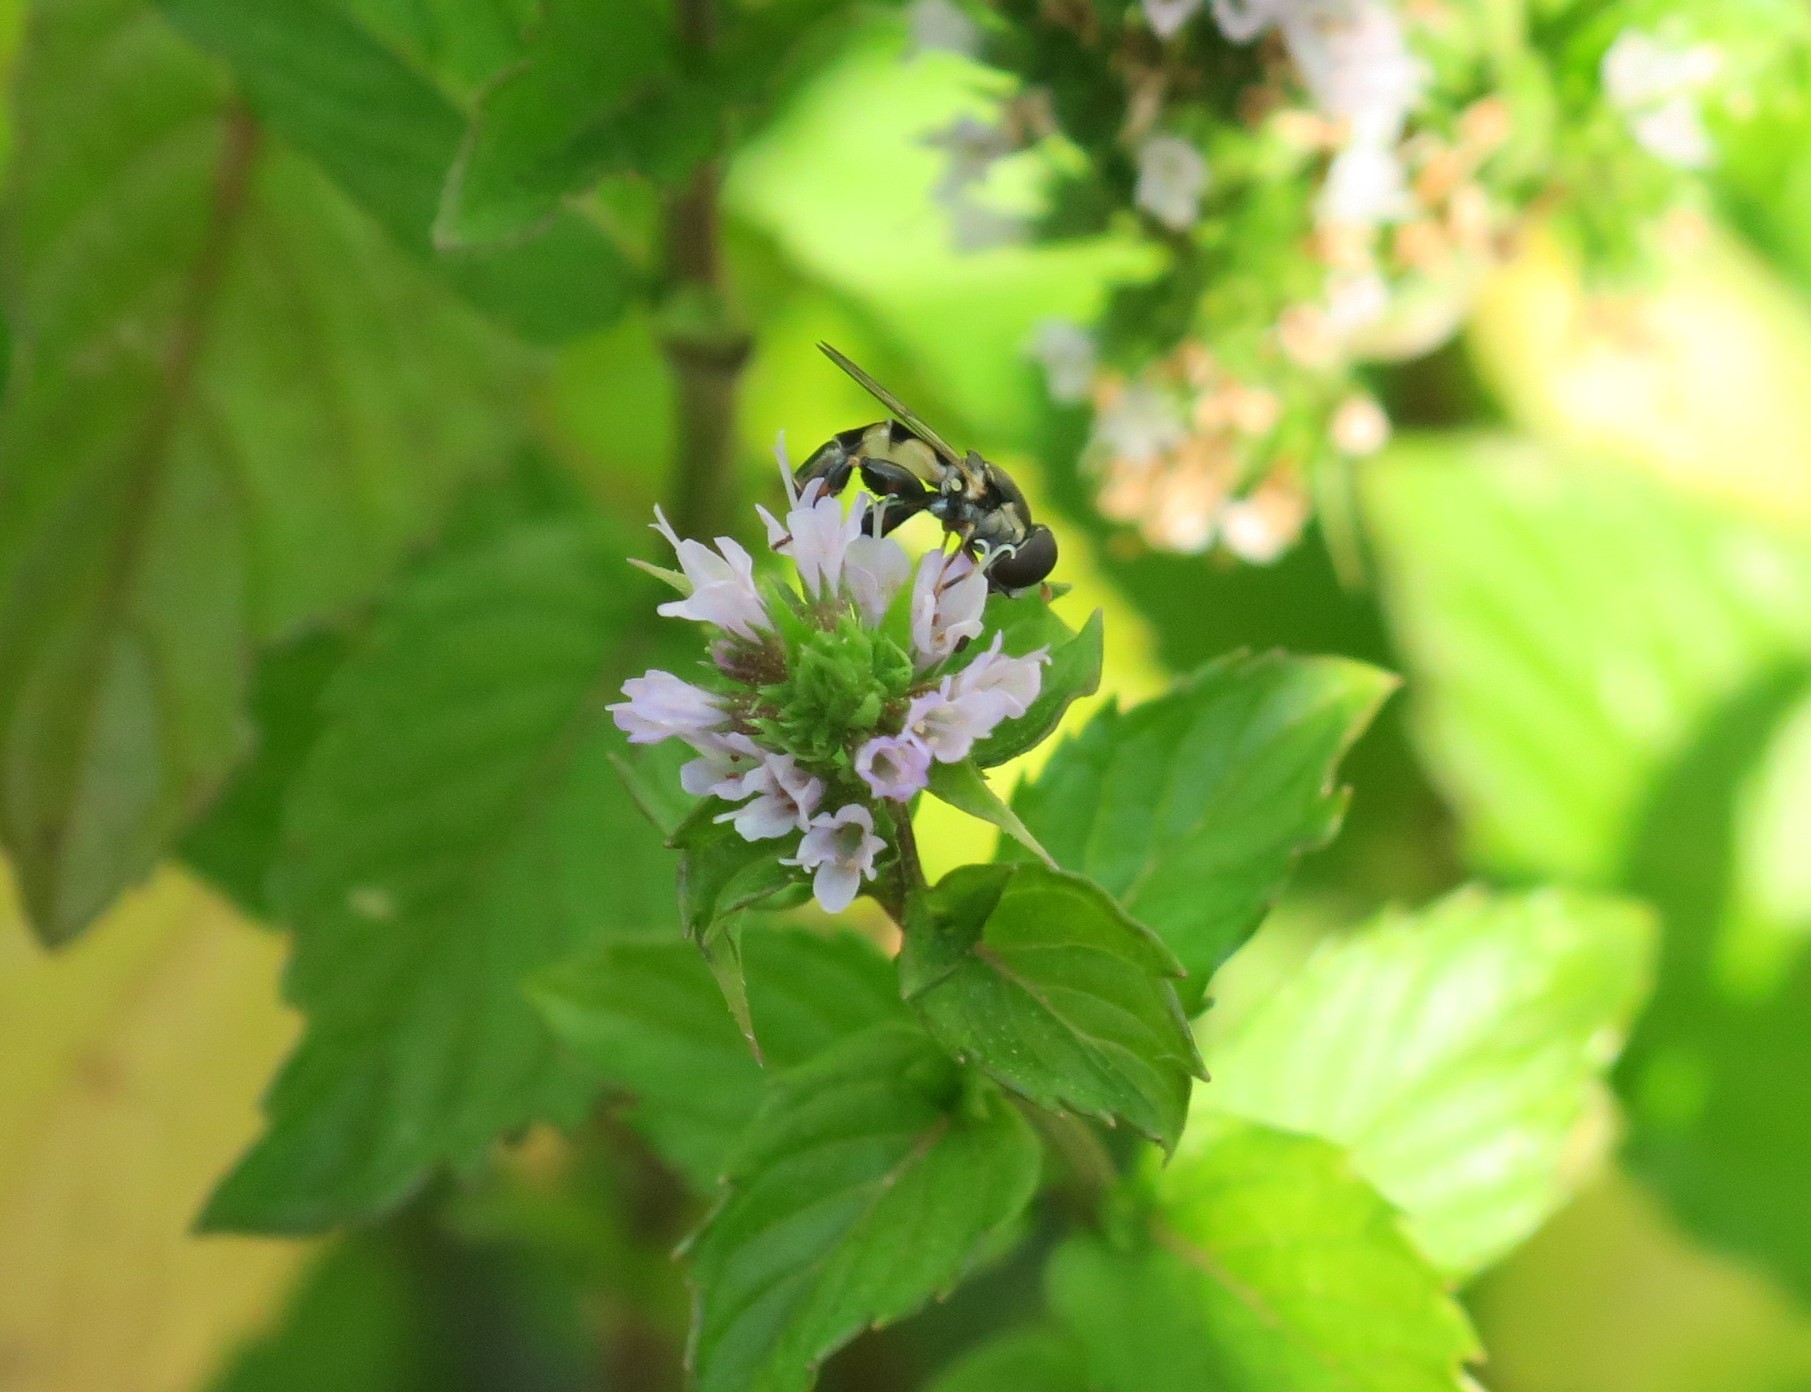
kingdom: Animalia
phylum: Arthropoda
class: Insecta
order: Diptera
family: Syrphidae
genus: Syritta
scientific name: Syritta pipiens
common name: Hover fly
